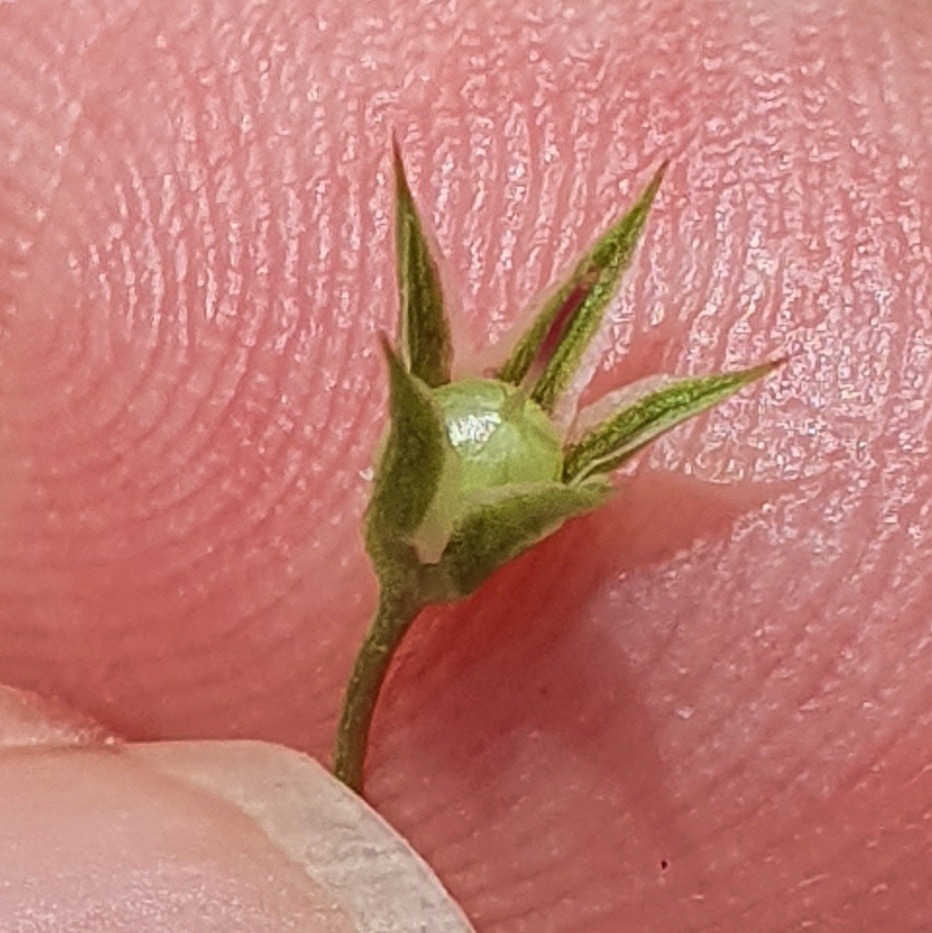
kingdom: Plantae
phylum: Tracheophyta
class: Magnoliopsida
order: Ericales
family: Primulaceae
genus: Lysimachia
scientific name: Lysimachia loeflingii
